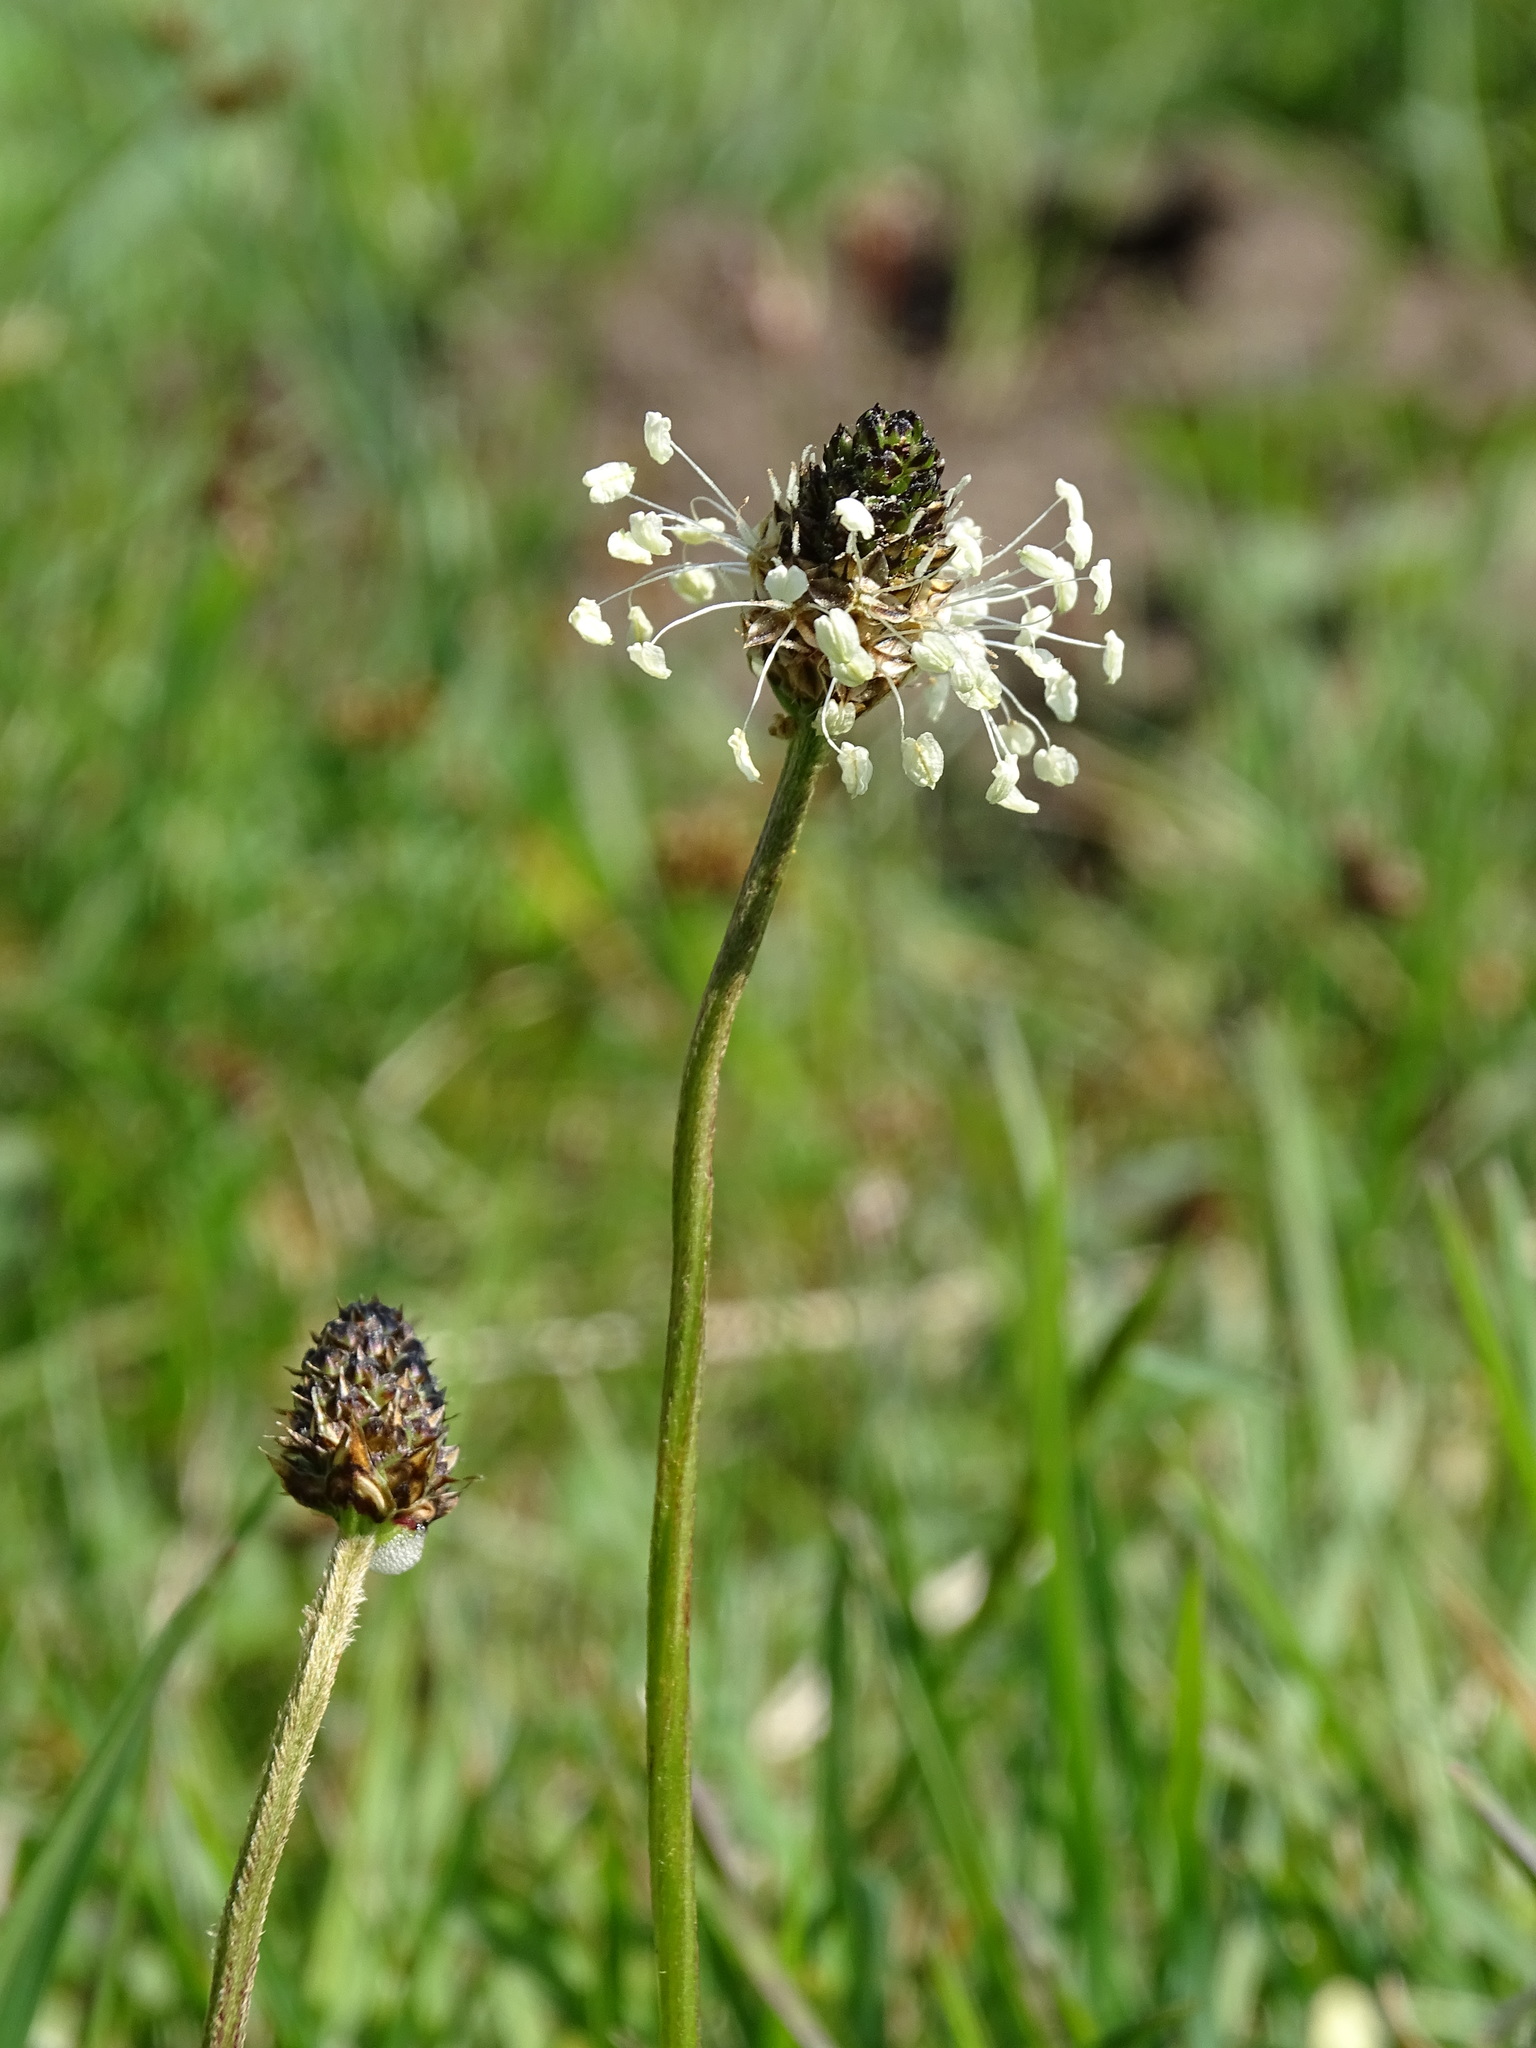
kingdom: Plantae
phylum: Tracheophyta
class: Magnoliopsida
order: Lamiales
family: Plantaginaceae
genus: Plantago
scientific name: Plantago lanceolata
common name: Ribwort plantain
